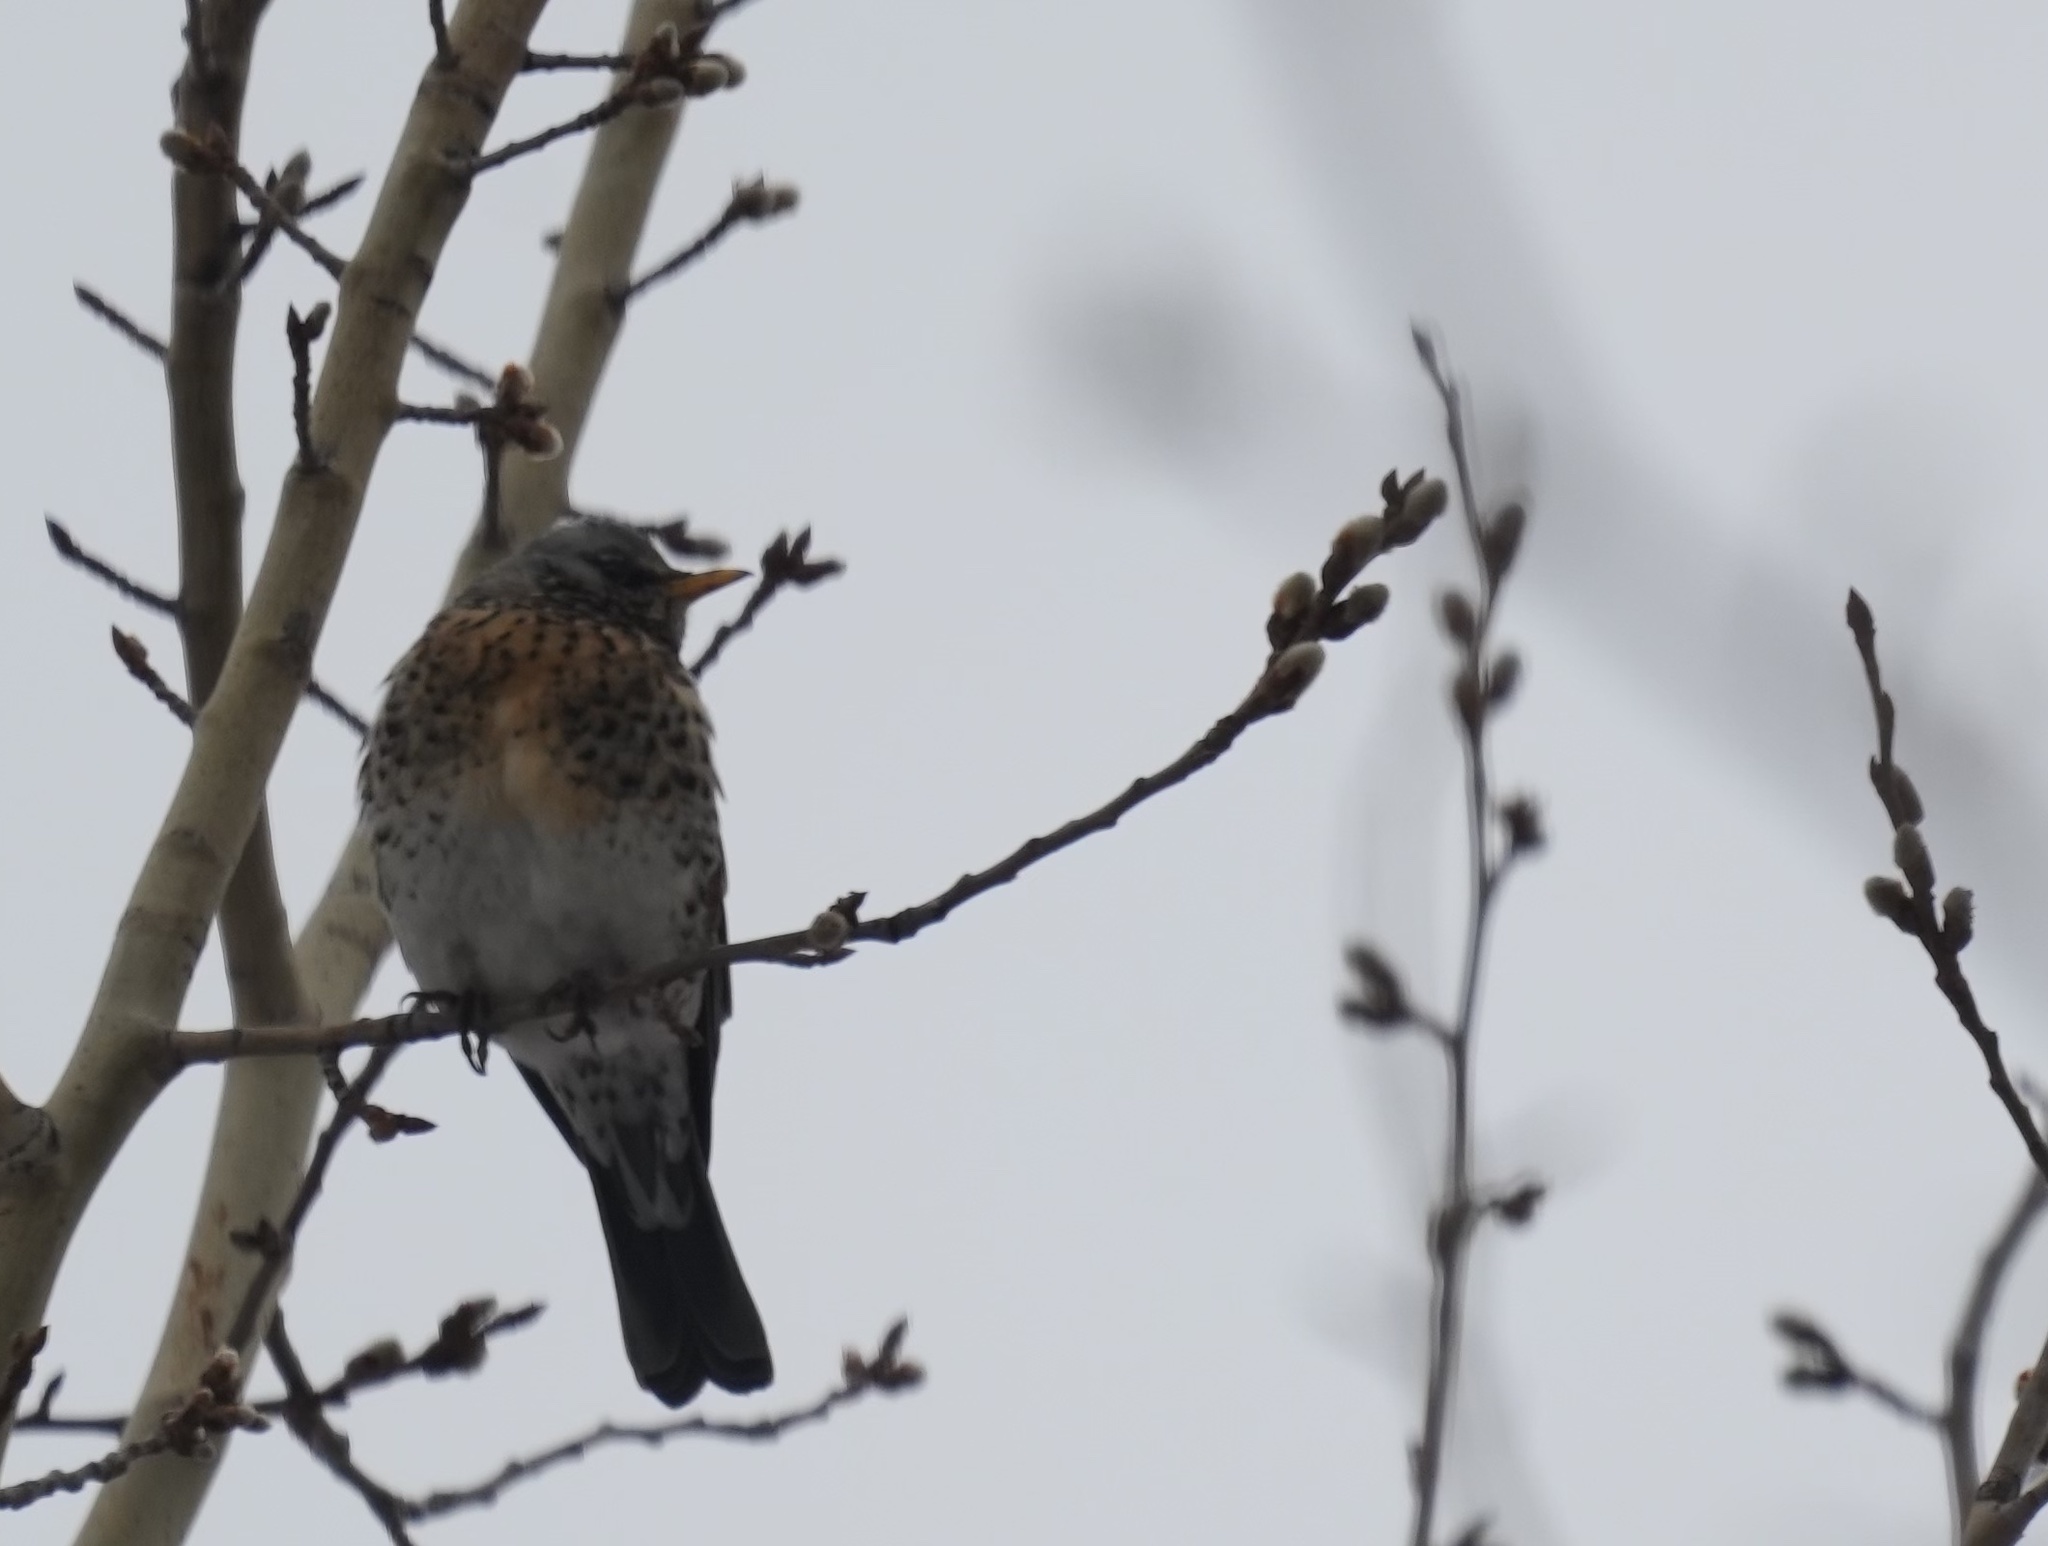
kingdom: Animalia
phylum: Chordata
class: Aves
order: Passeriformes
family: Turdidae
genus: Turdus
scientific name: Turdus pilaris
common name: Fieldfare
